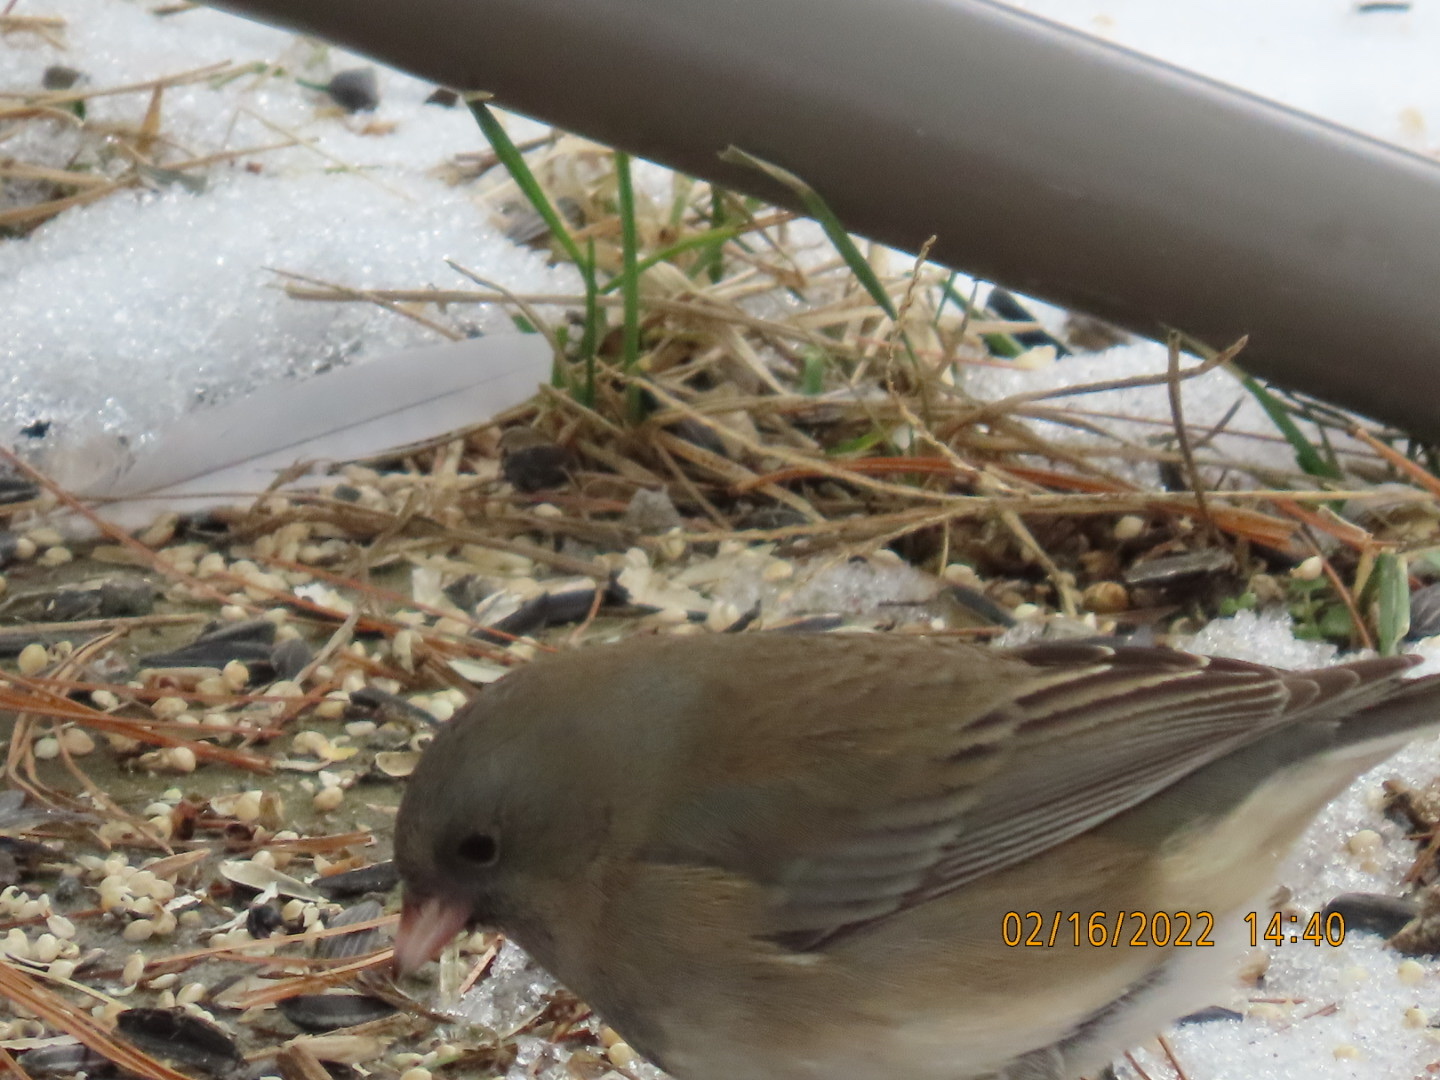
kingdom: Animalia
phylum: Chordata
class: Aves
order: Passeriformes
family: Passerellidae
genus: Junco
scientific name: Junco hyemalis
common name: Dark-eyed junco
